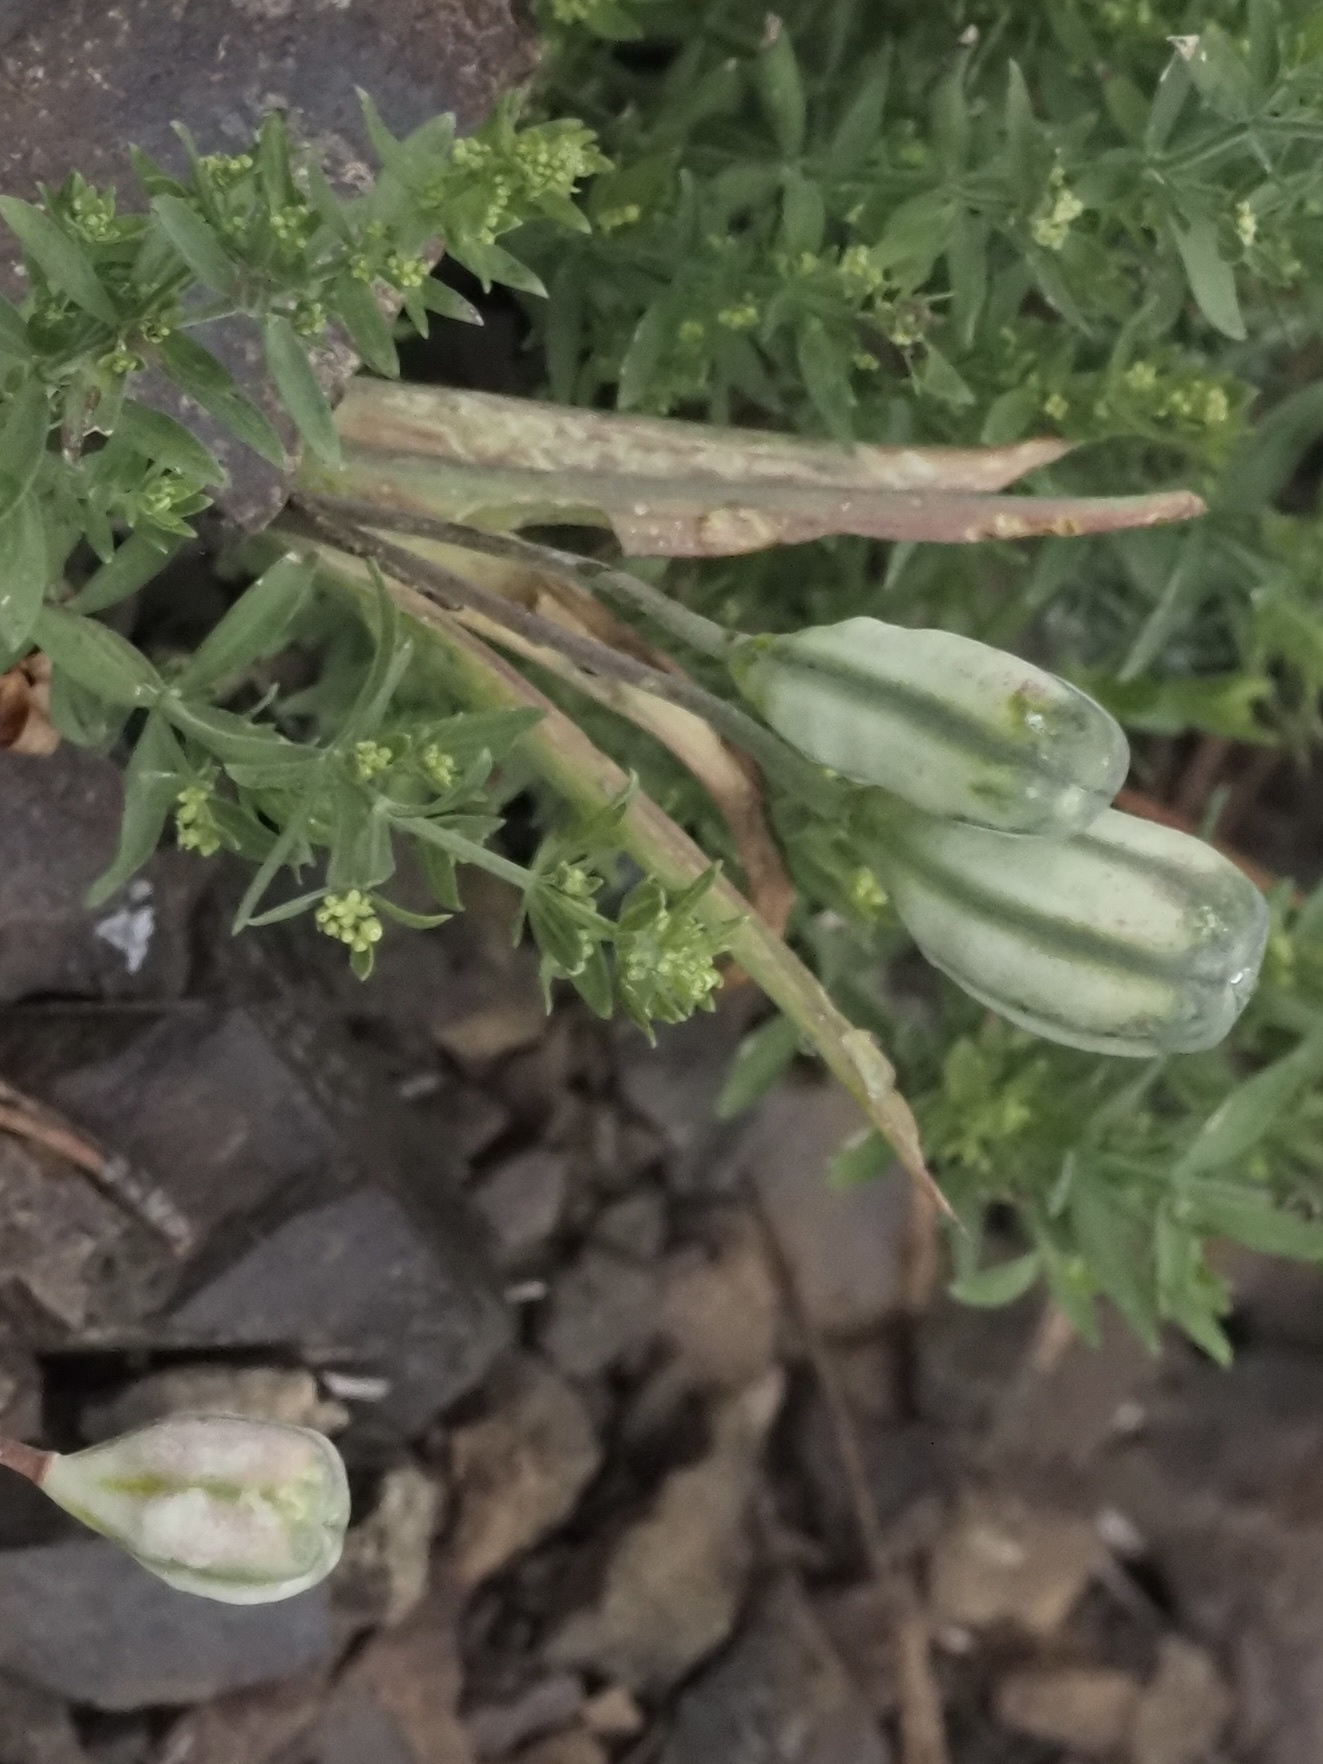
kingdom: Plantae
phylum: Tracheophyta
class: Liliopsida
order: Liliales
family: Liliaceae
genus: Fritillaria
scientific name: Fritillaria pudica
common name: Yellow fritillary
